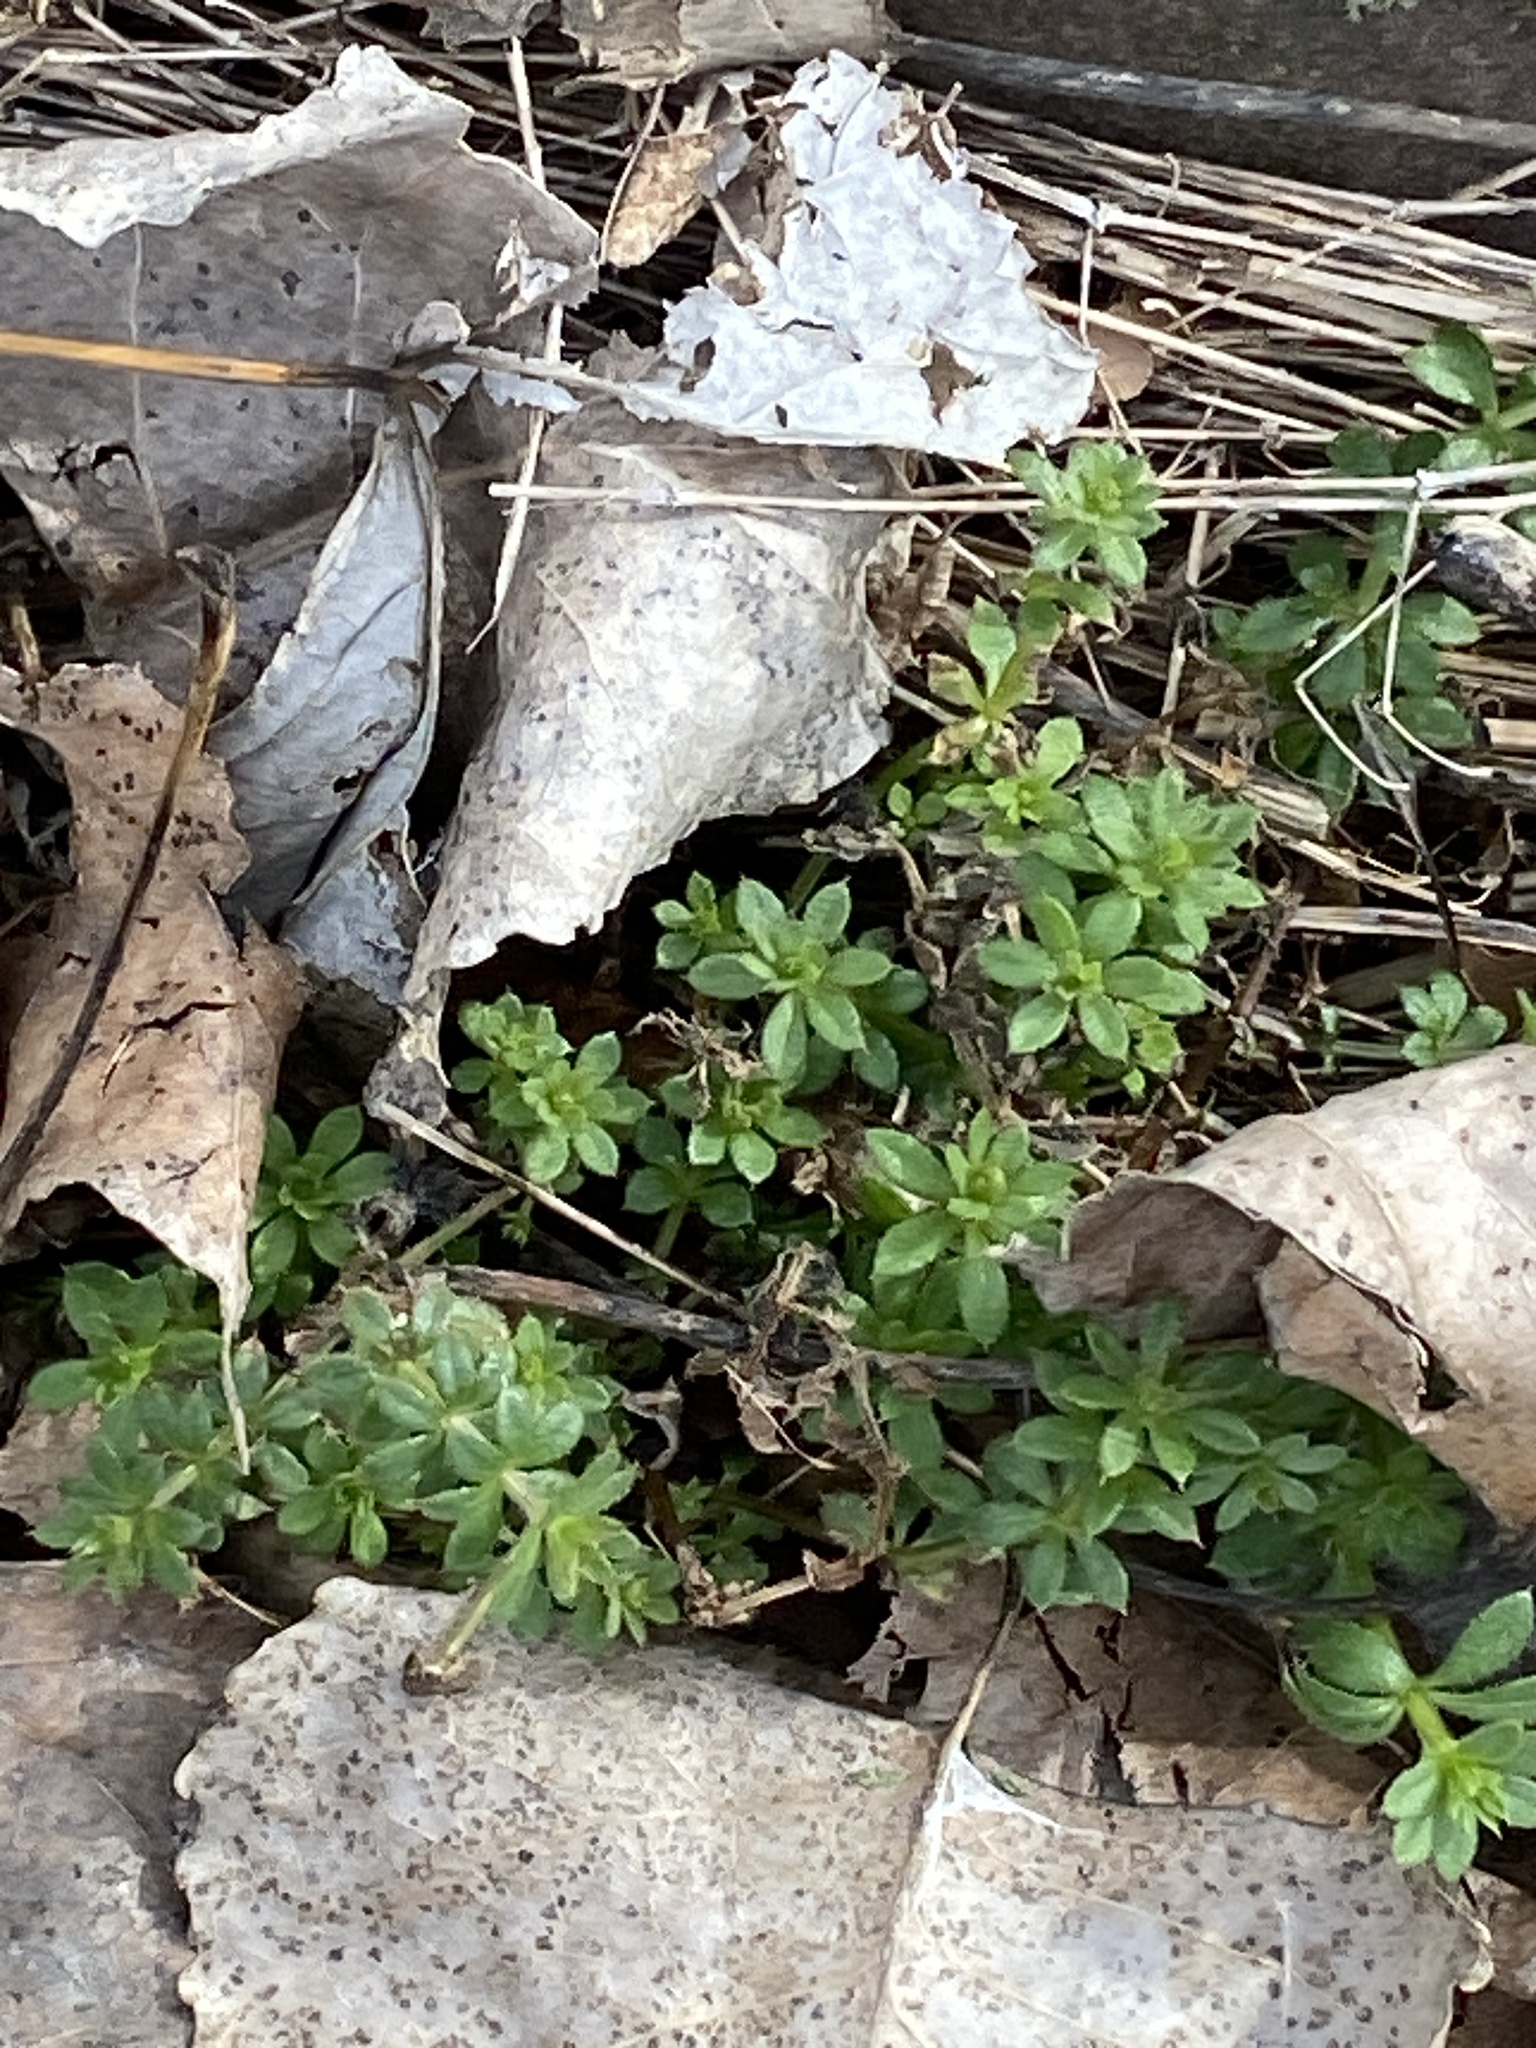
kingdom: Plantae
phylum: Tracheophyta
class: Magnoliopsida
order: Gentianales
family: Rubiaceae
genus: Galium
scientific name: Galium aparine
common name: Cleavers
